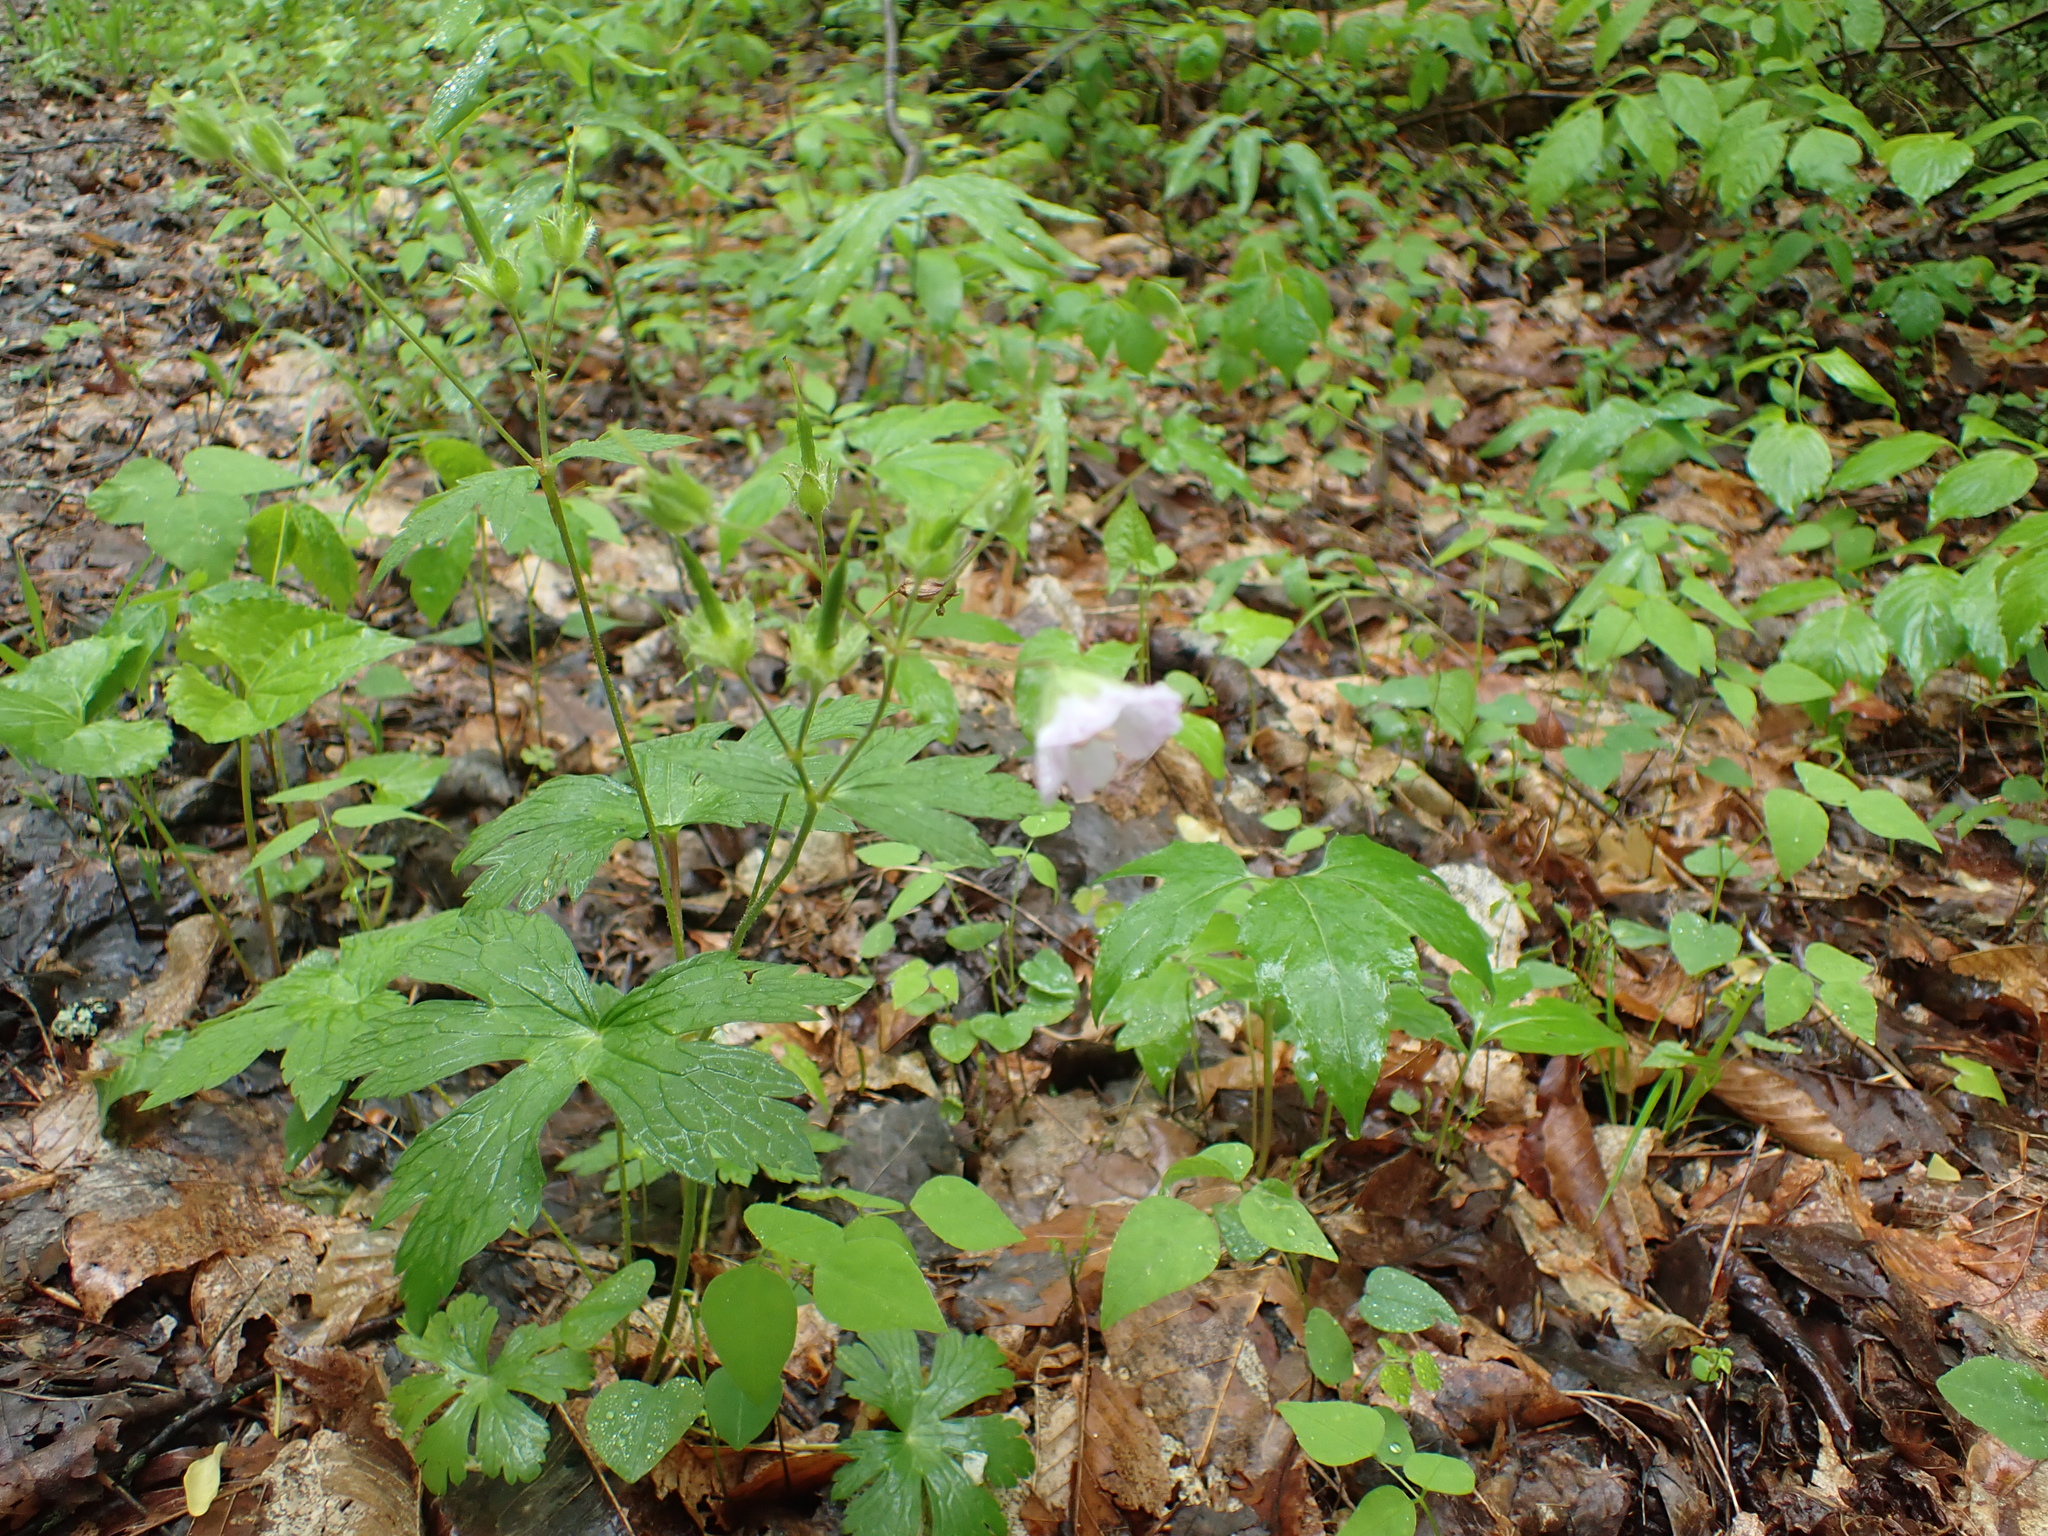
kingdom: Plantae
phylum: Tracheophyta
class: Magnoliopsida
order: Geraniales
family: Geraniaceae
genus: Geranium
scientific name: Geranium maculatum
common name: Spotted geranium
